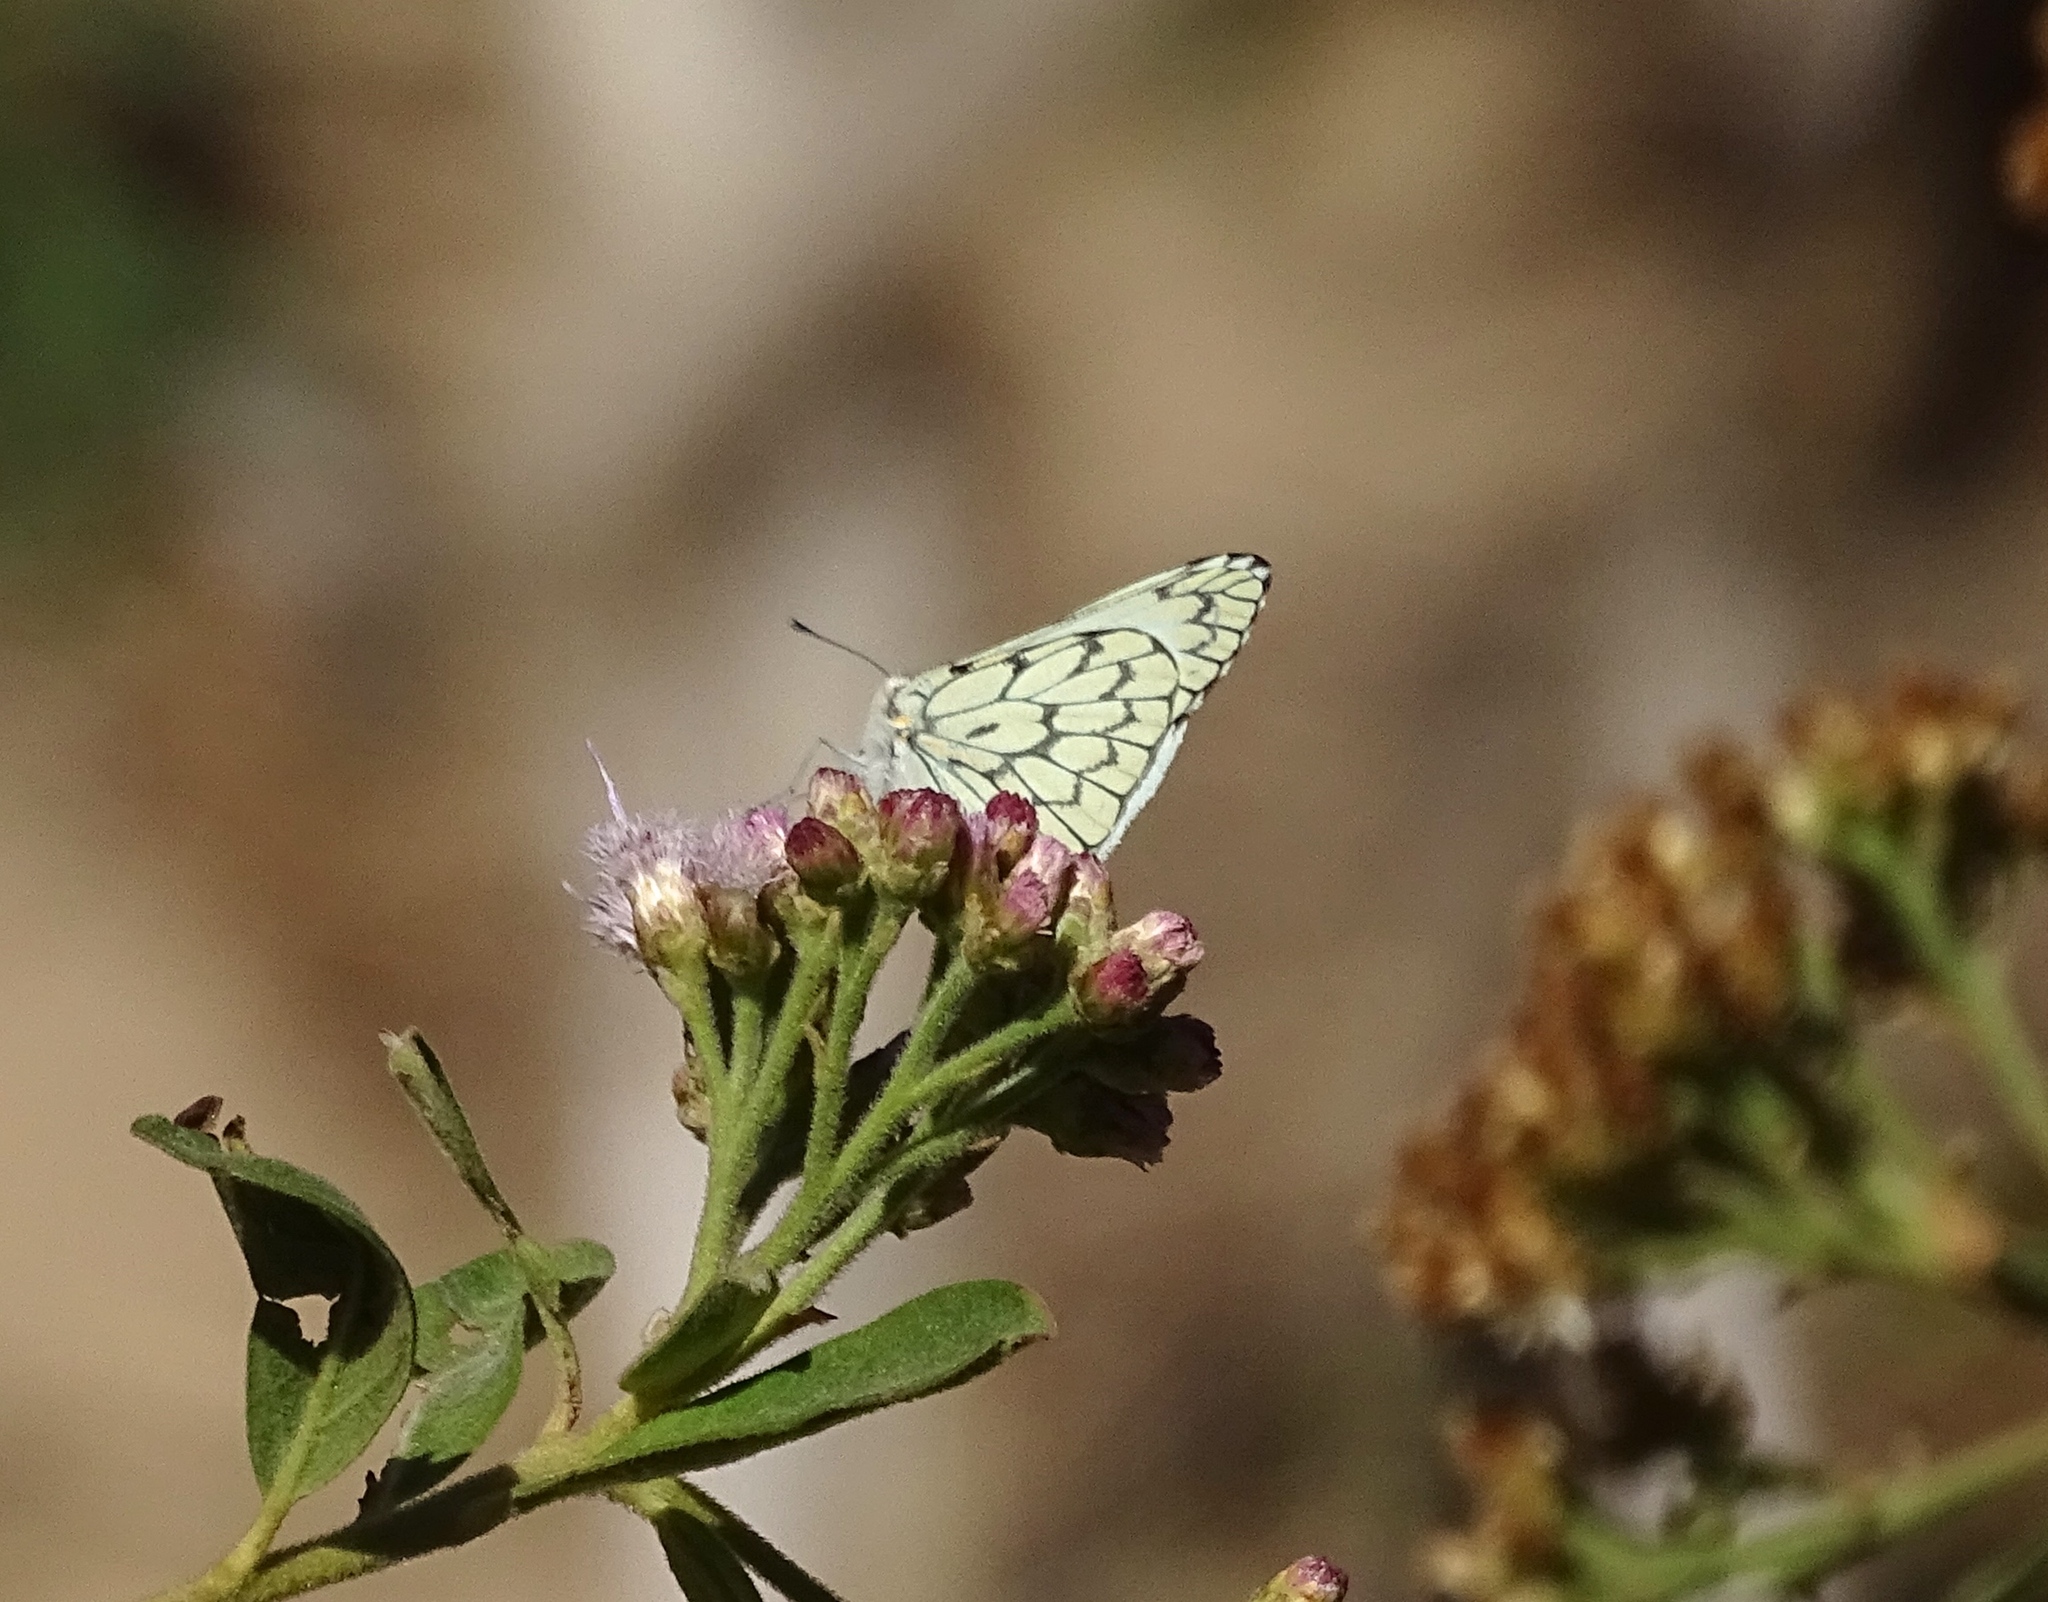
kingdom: Animalia
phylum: Arthropoda
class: Insecta
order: Lepidoptera
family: Pieridae
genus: Hesperocharis
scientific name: Hesperocharis marchalii
